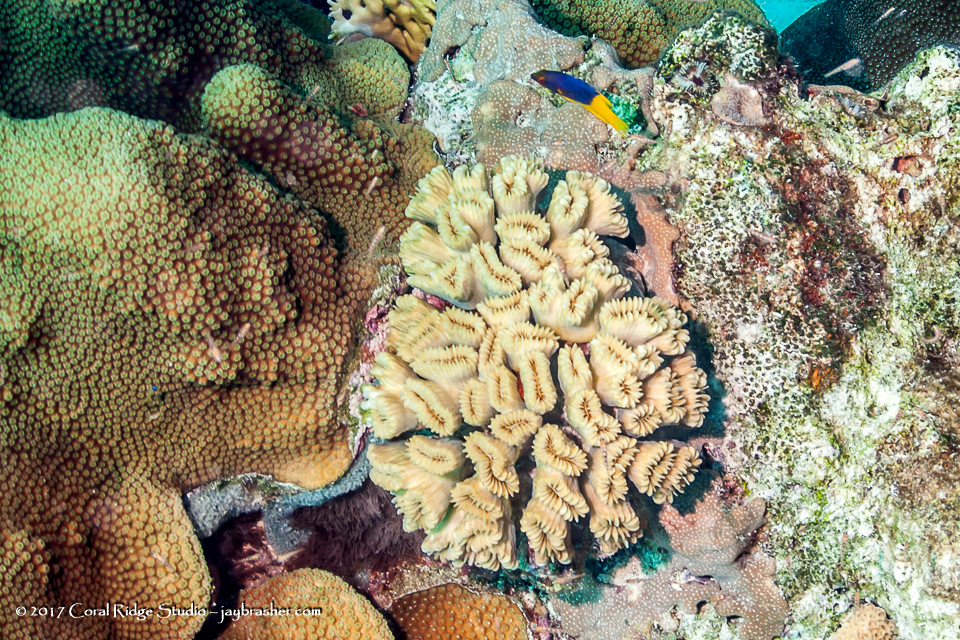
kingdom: Animalia
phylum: Chordata
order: Perciformes
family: Labridae
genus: Bodianus
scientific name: Bodianus rufus
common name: Spanish hogfish
